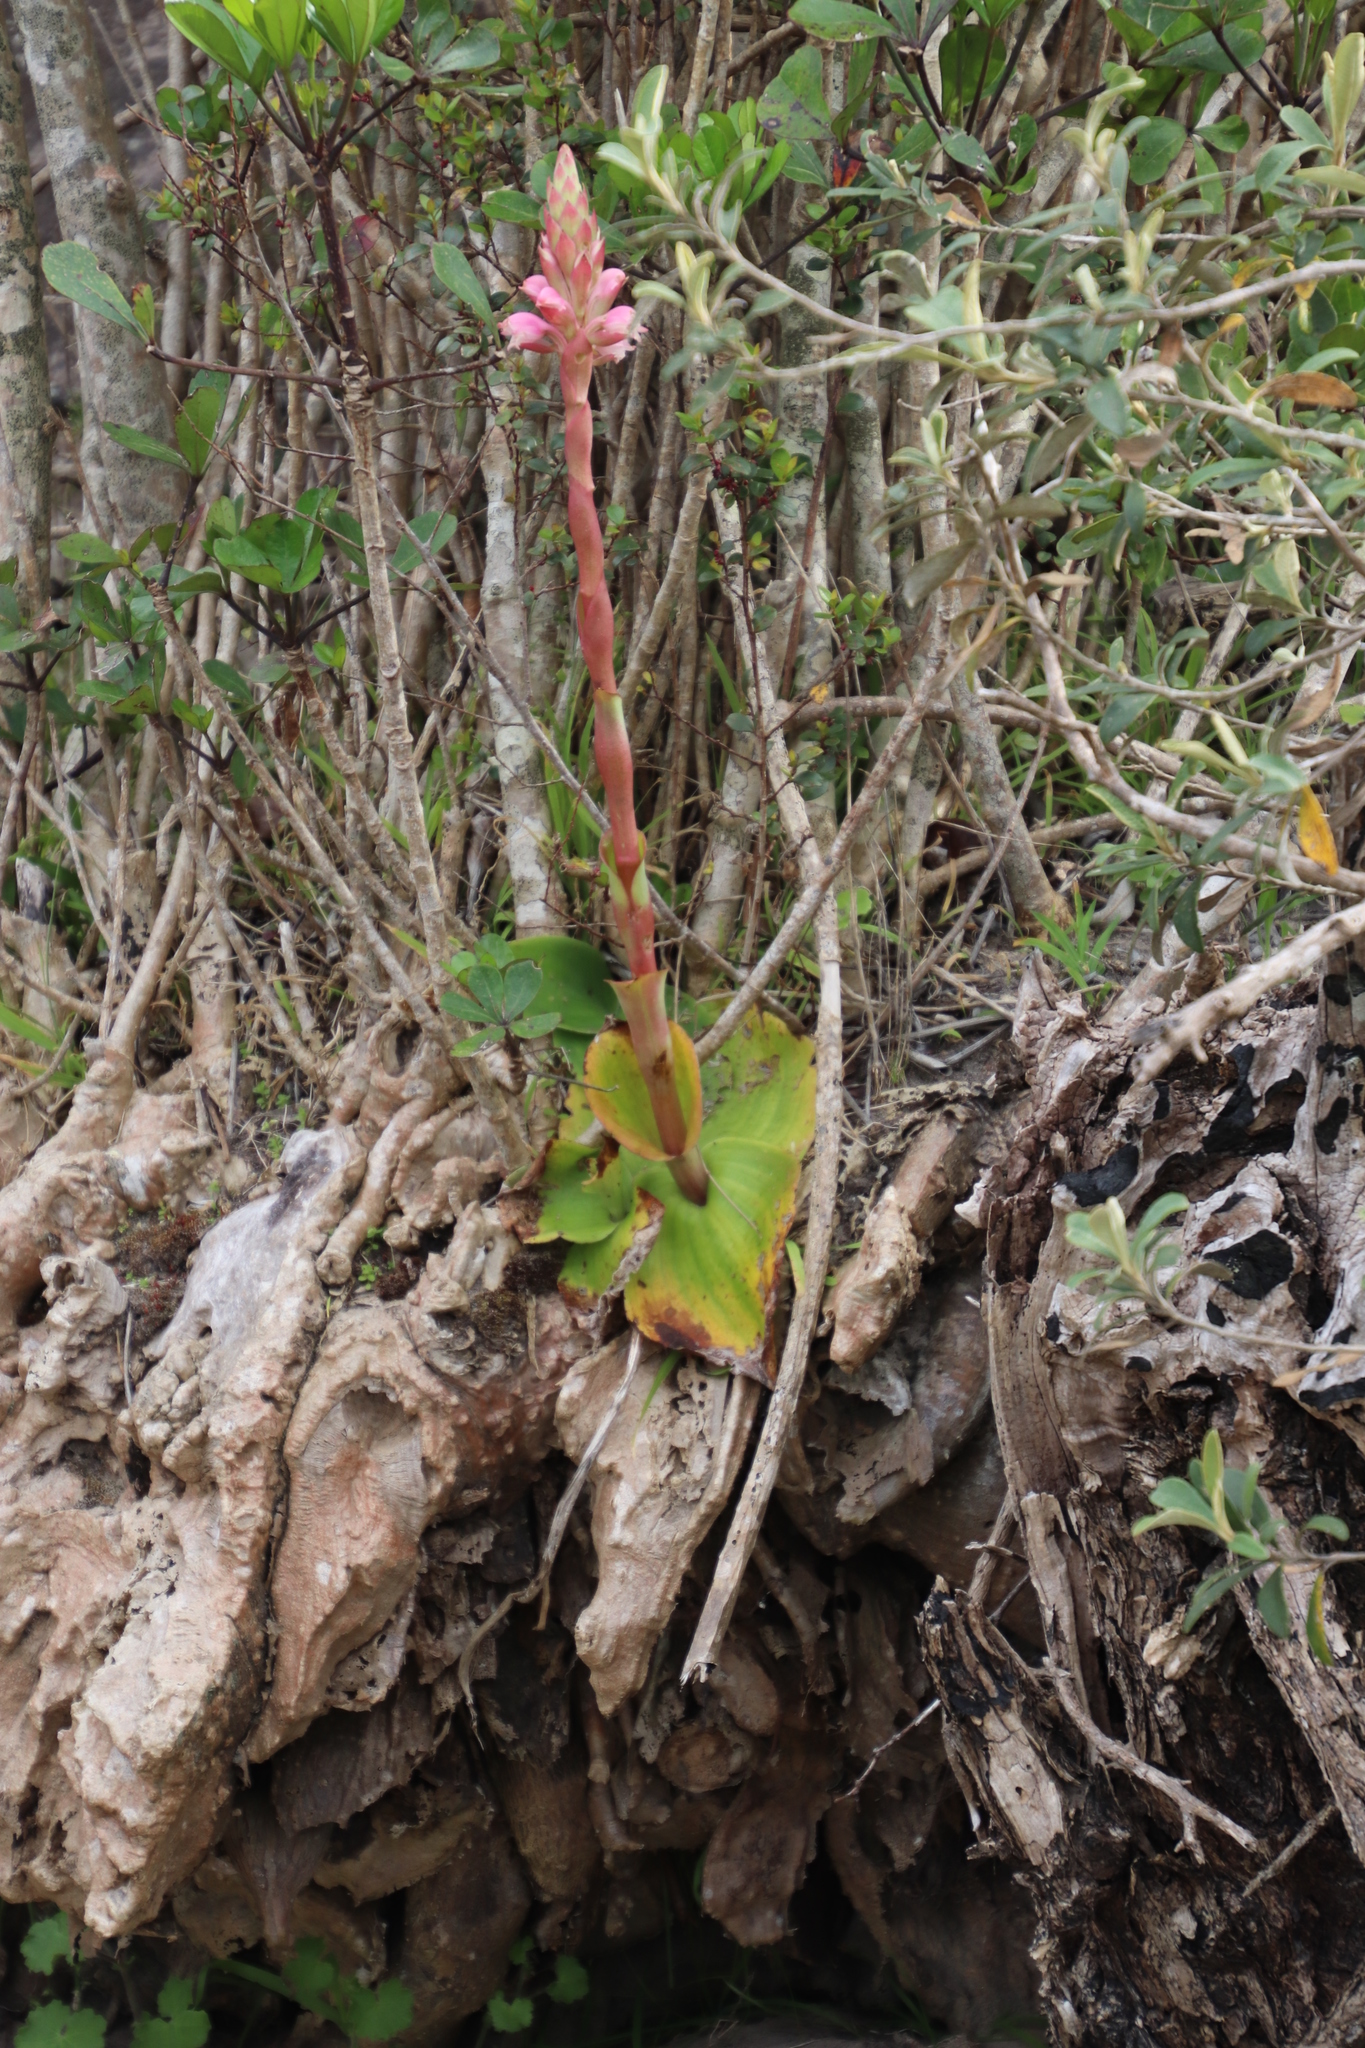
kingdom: Plantae
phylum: Tracheophyta
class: Liliopsida
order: Asparagales
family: Orchidaceae
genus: Satyrium
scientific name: Satyrium carneum
